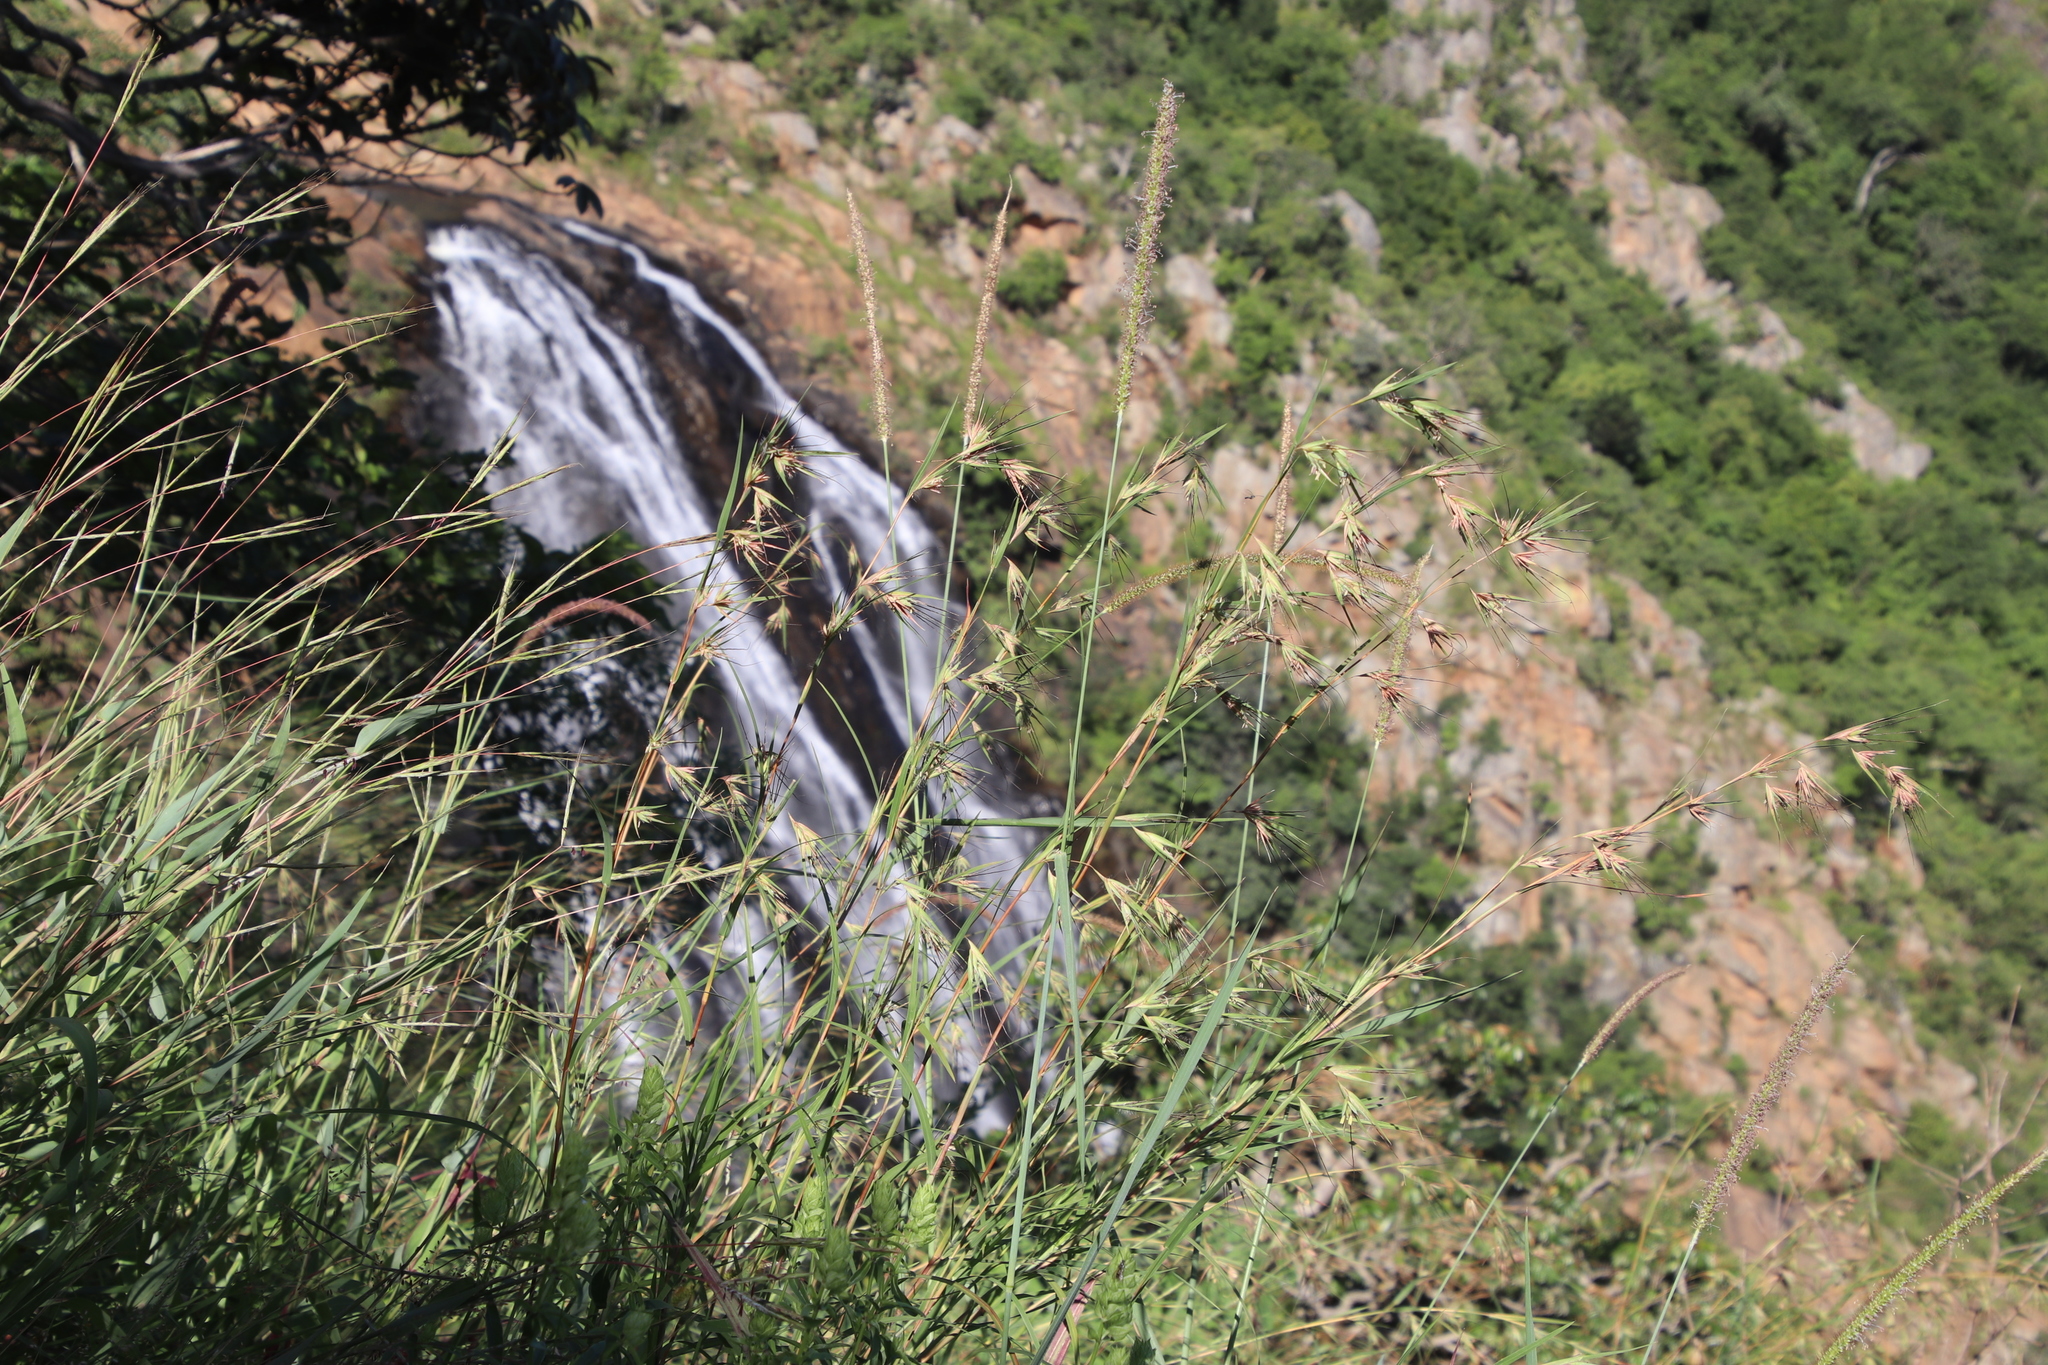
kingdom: Plantae
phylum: Tracheophyta
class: Liliopsida
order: Poales
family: Poaceae
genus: Themeda
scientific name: Themeda triandra
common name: Kangaroo grass
